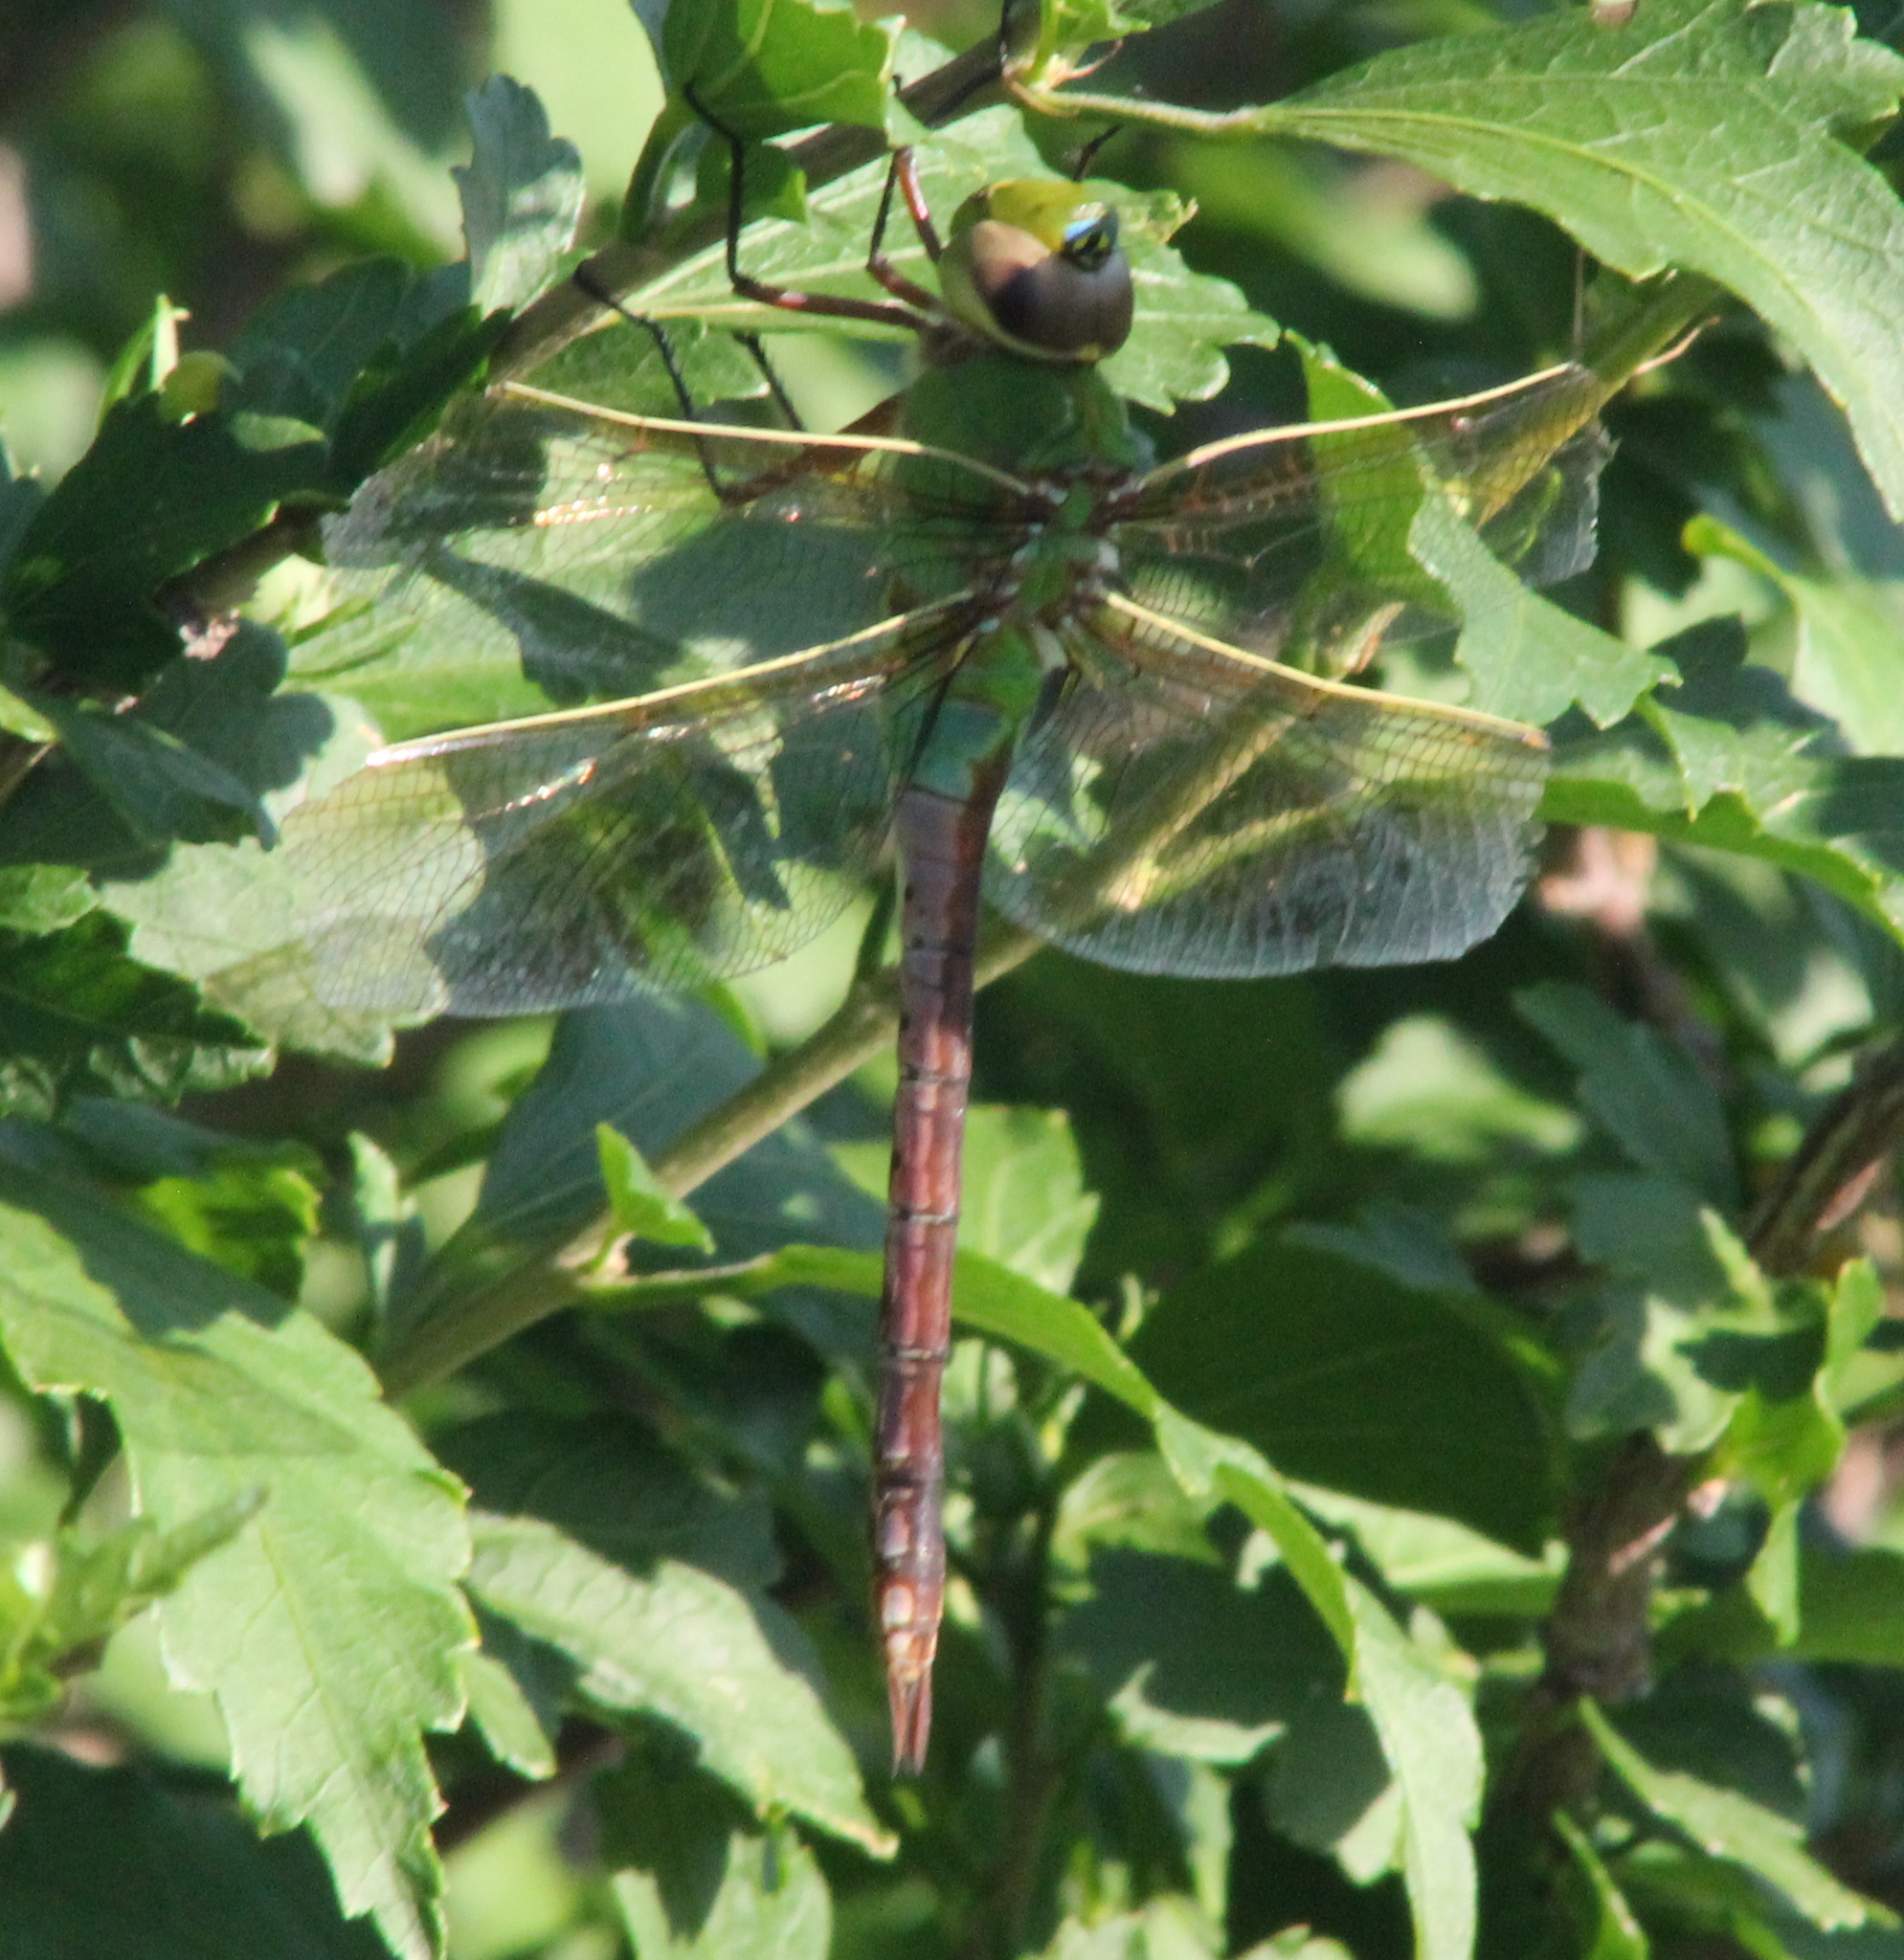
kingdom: Animalia
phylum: Arthropoda
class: Insecta
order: Odonata
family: Aeshnidae
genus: Anax
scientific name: Anax junius
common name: Common green darner
